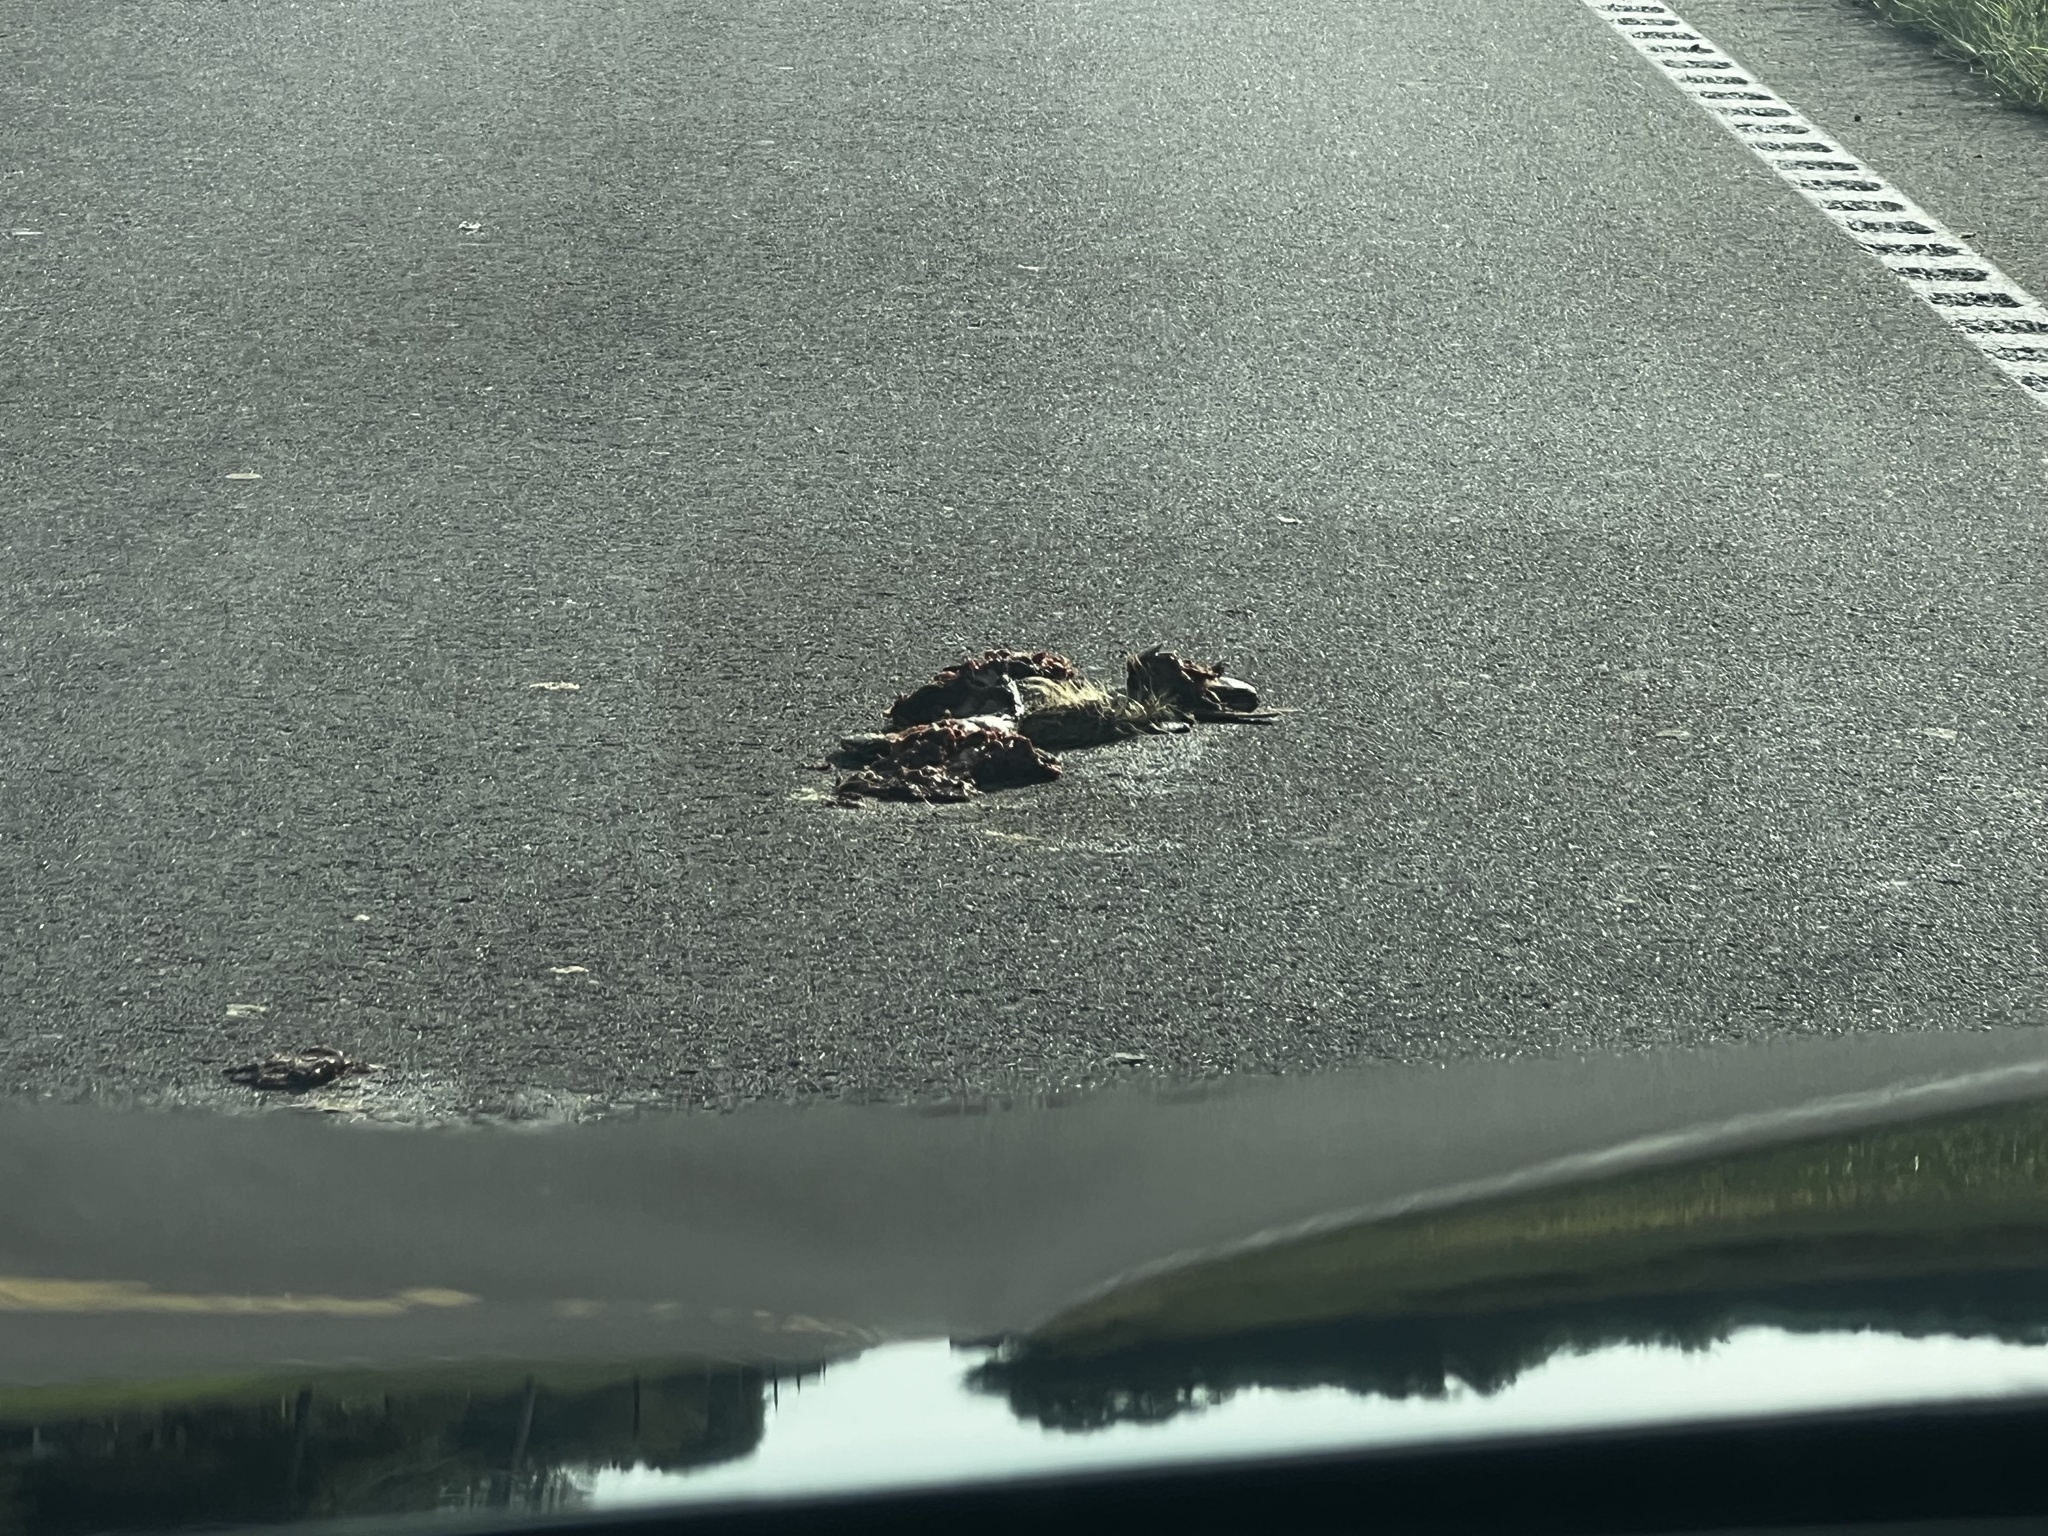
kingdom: Animalia
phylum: Chordata
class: Mammalia
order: Cingulata
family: Dasypodidae
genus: Dasypus
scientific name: Dasypus novemcinctus
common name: Nine-banded armadillo
